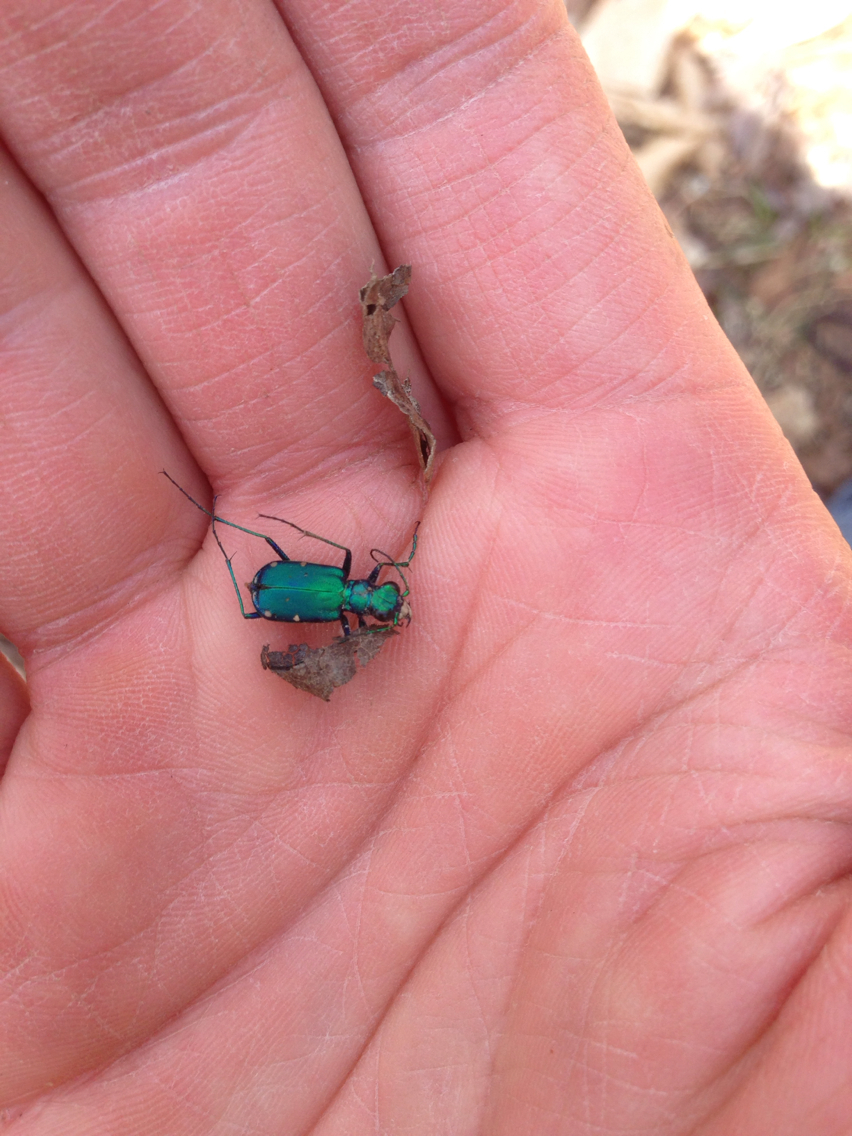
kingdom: Animalia
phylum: Arthropoda
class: Insecta
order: Coleoptera
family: Carabidae
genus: Cicindela
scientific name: Cicindela sexguttata
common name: Six-spotted tiger beetle
